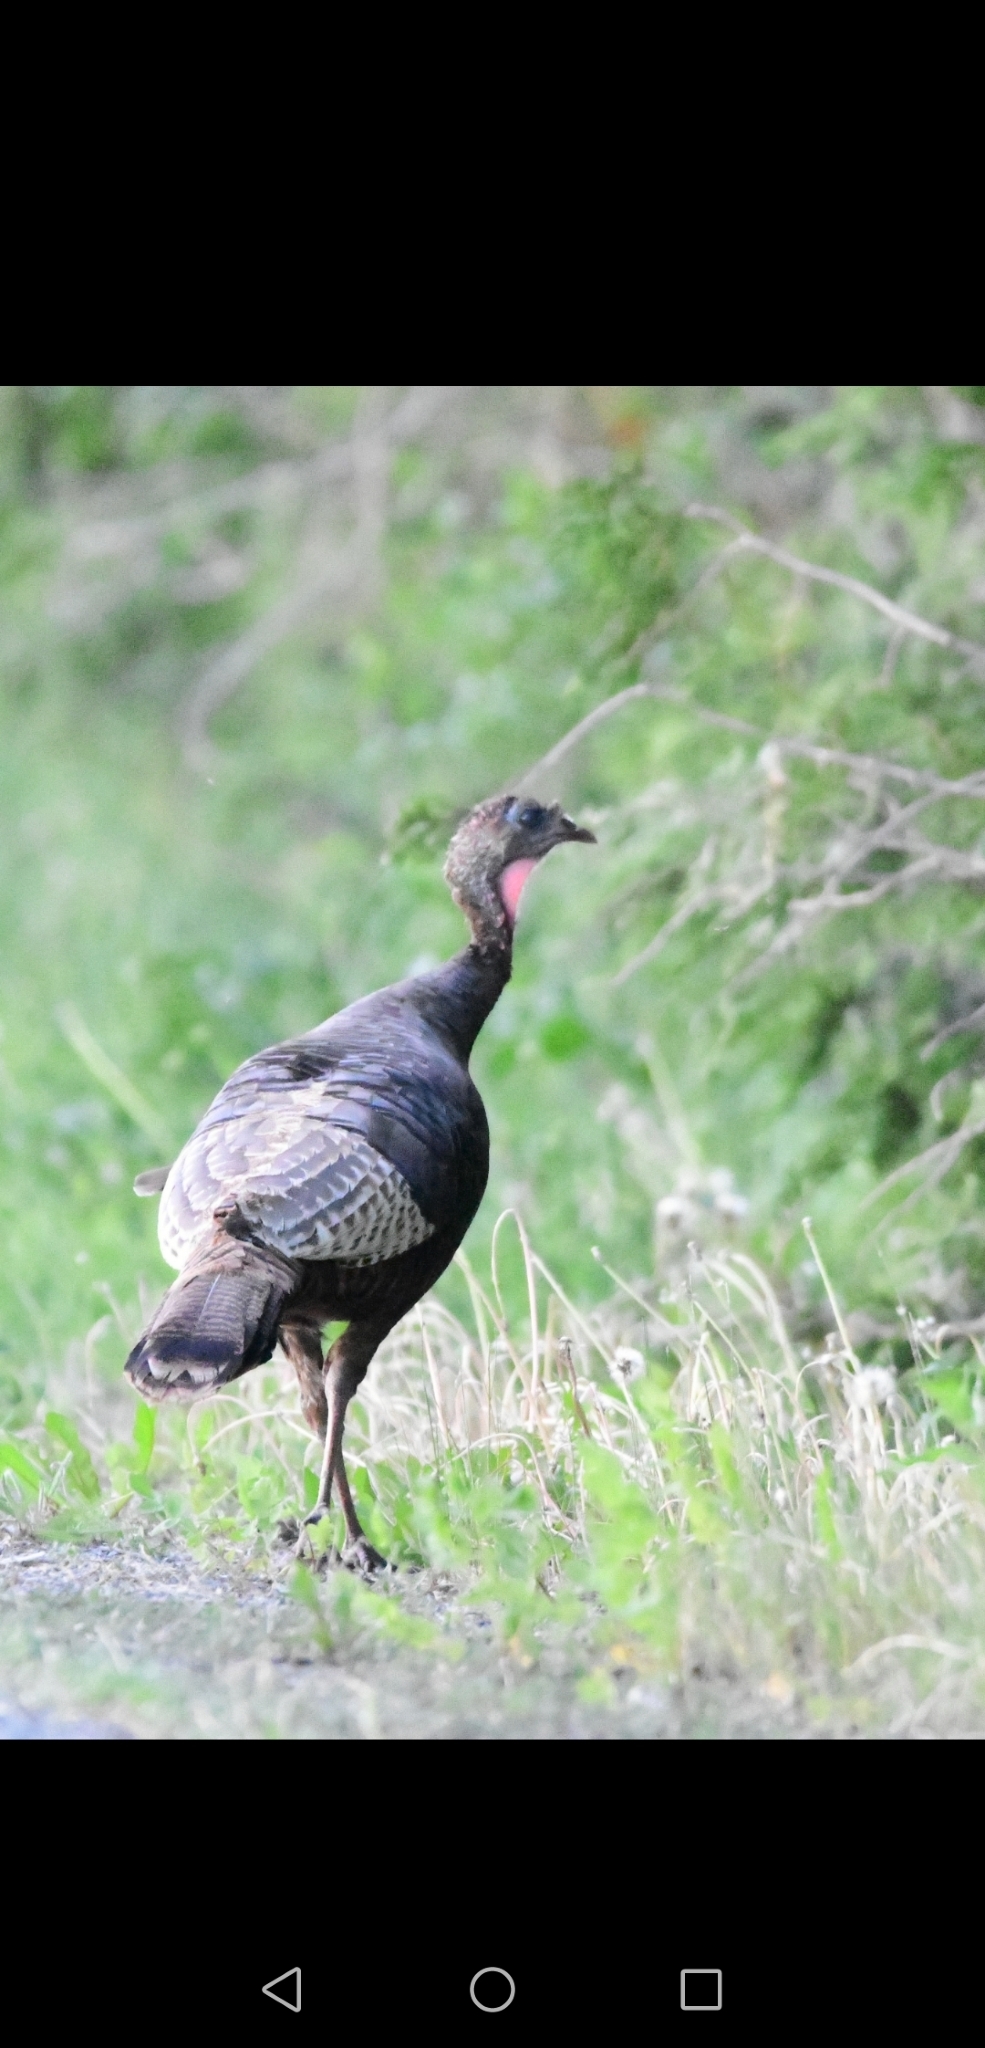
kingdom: Animalia
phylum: Chordata
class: Aves
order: Galliformes
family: Phasianidae
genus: Meleagris
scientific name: Meleagris gallopavo
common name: Wild turkey
